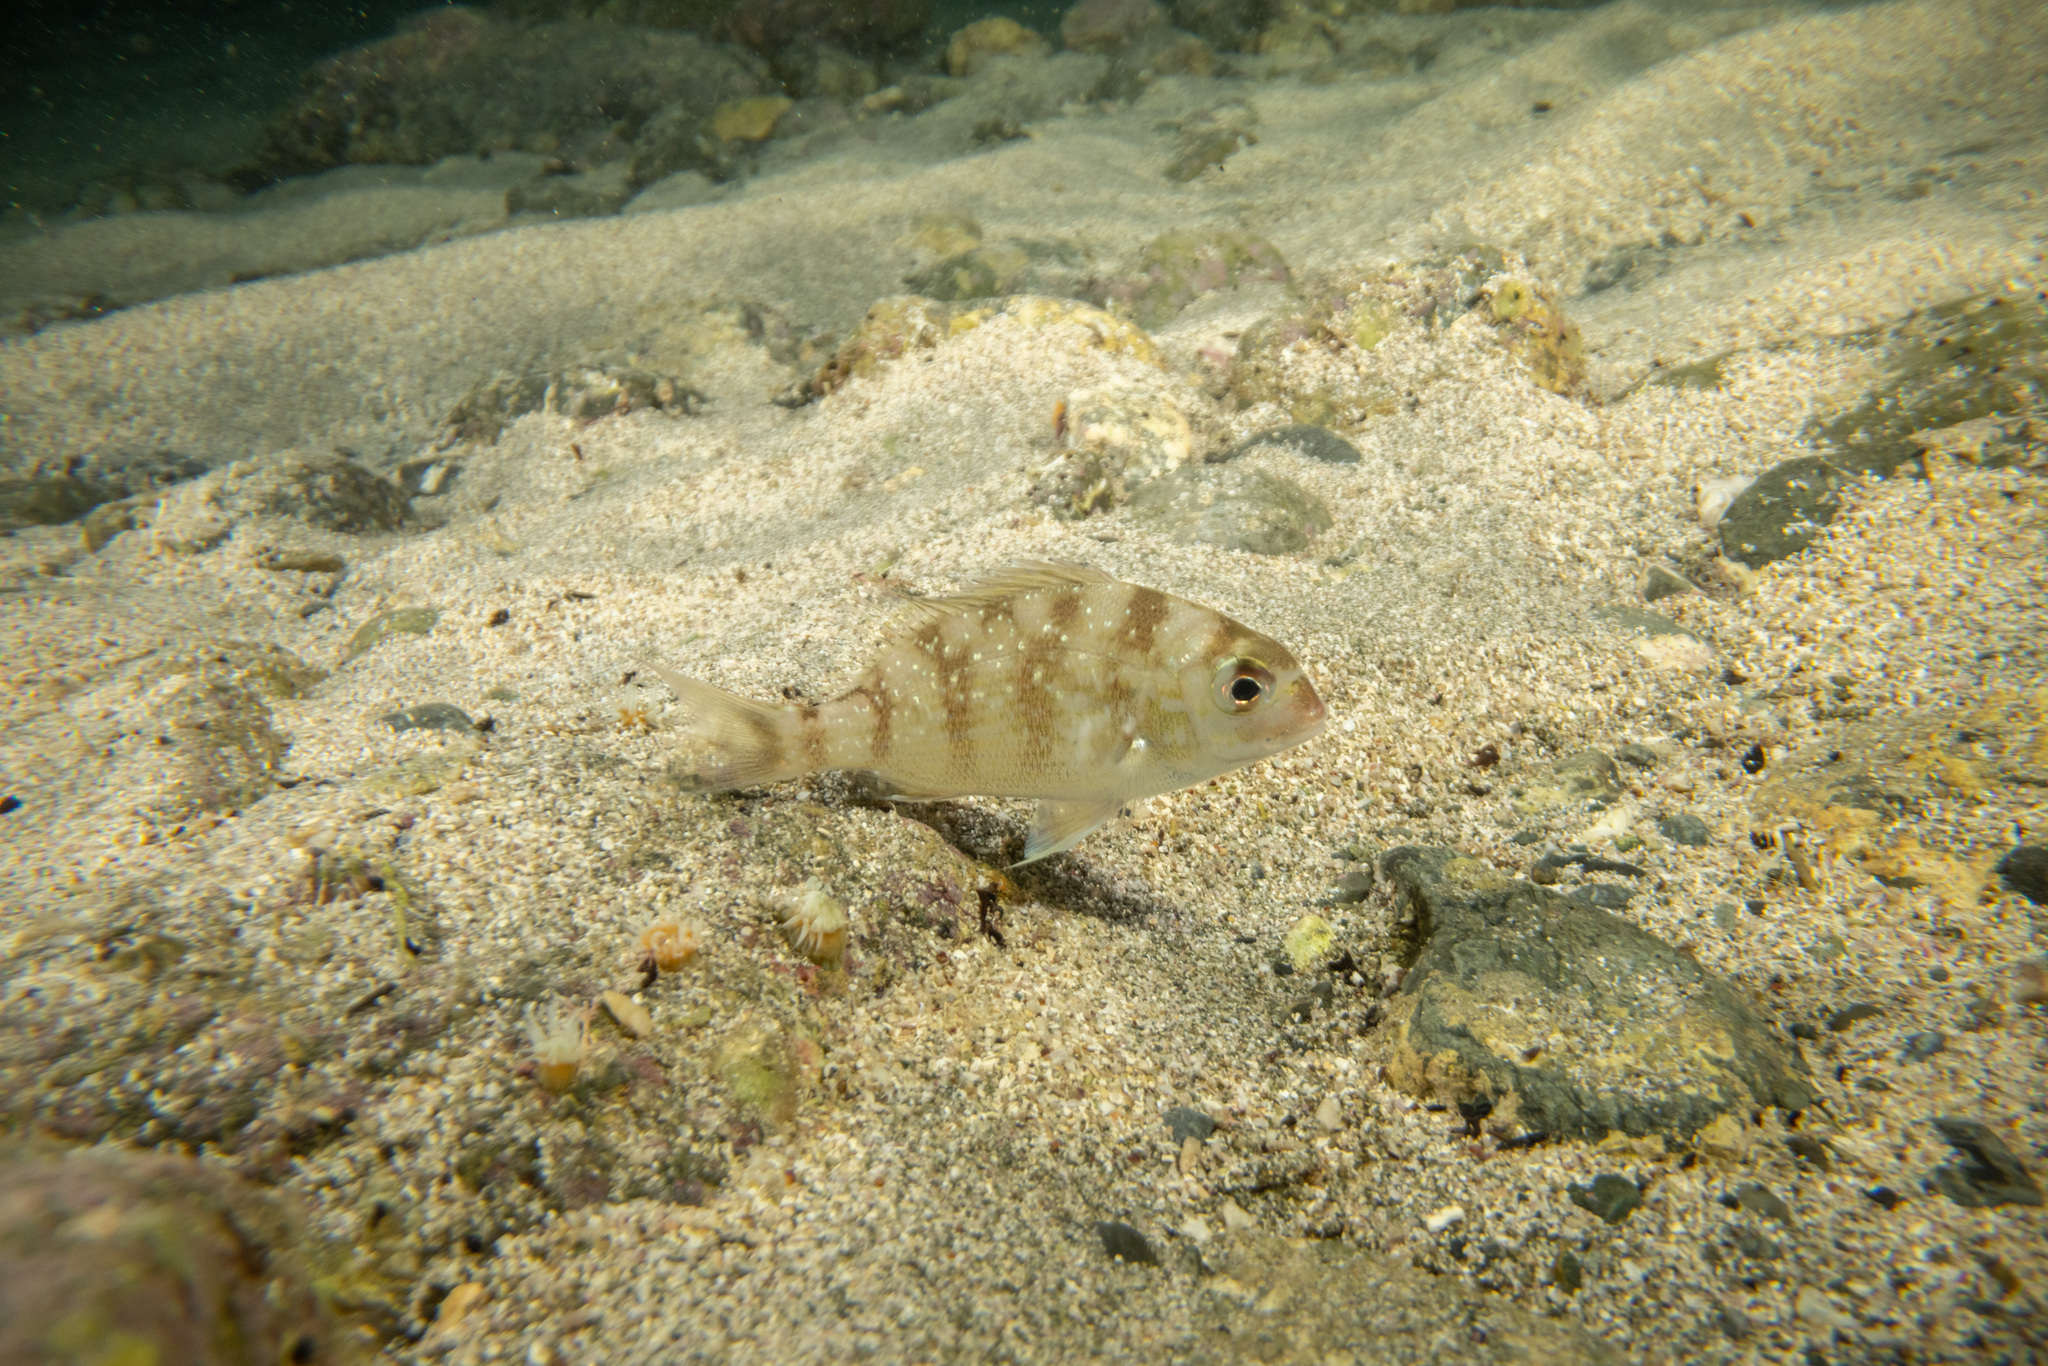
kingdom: Animalia
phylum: Chordata
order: Perciformes
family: Sparidae
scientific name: Sparidae
